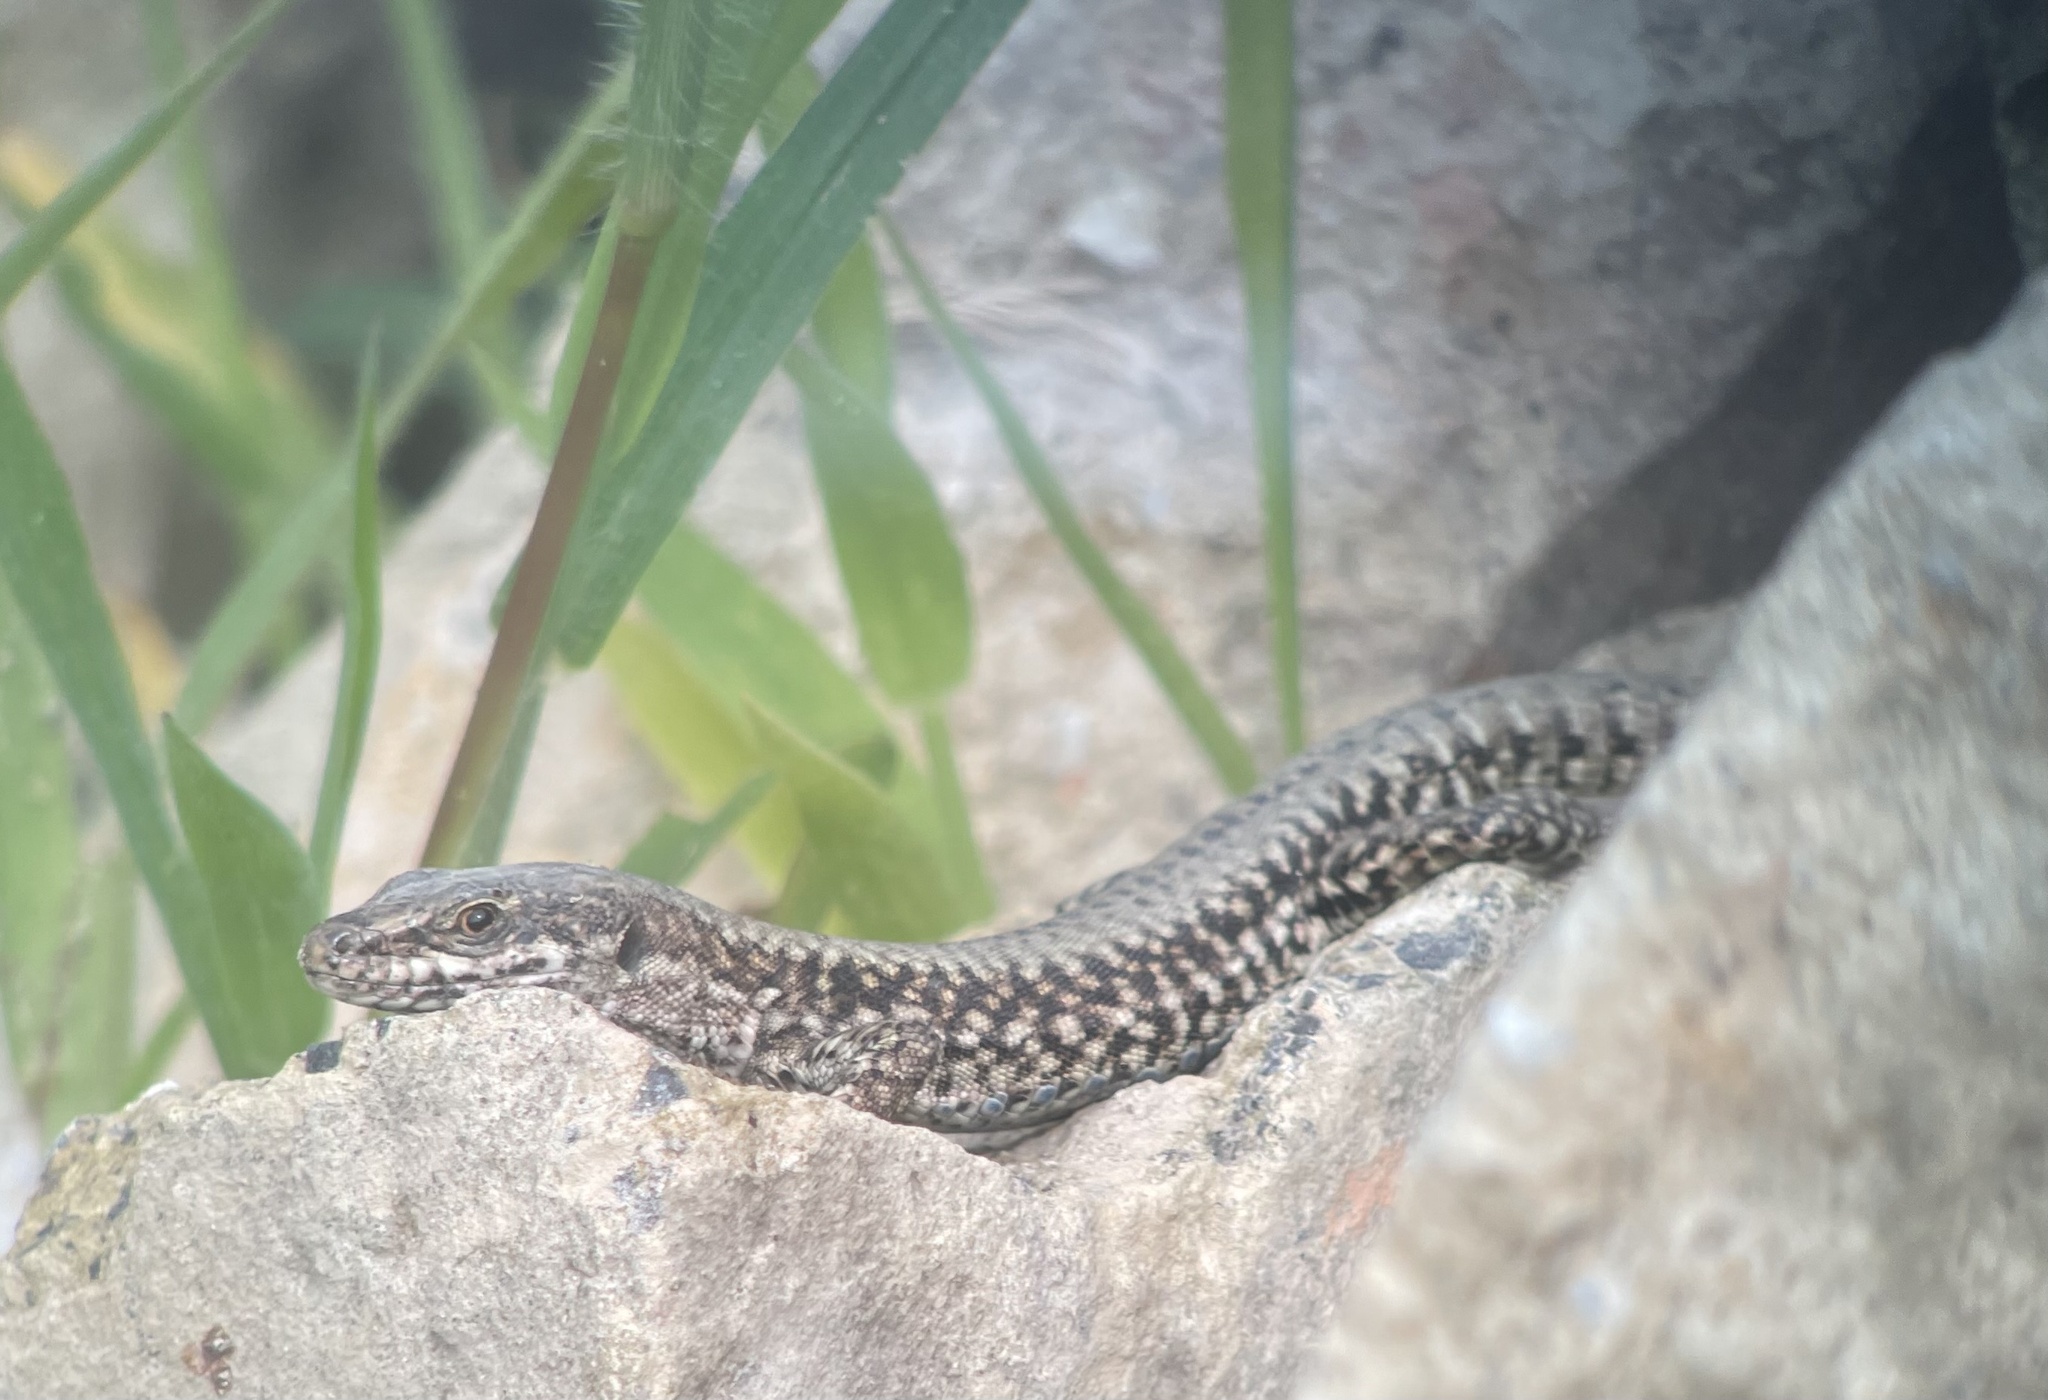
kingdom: Animalia
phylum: Chordata
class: Squamata
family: Lacertidae
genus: Podarcis
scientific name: Podarcis muralis
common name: Common wall lizard
